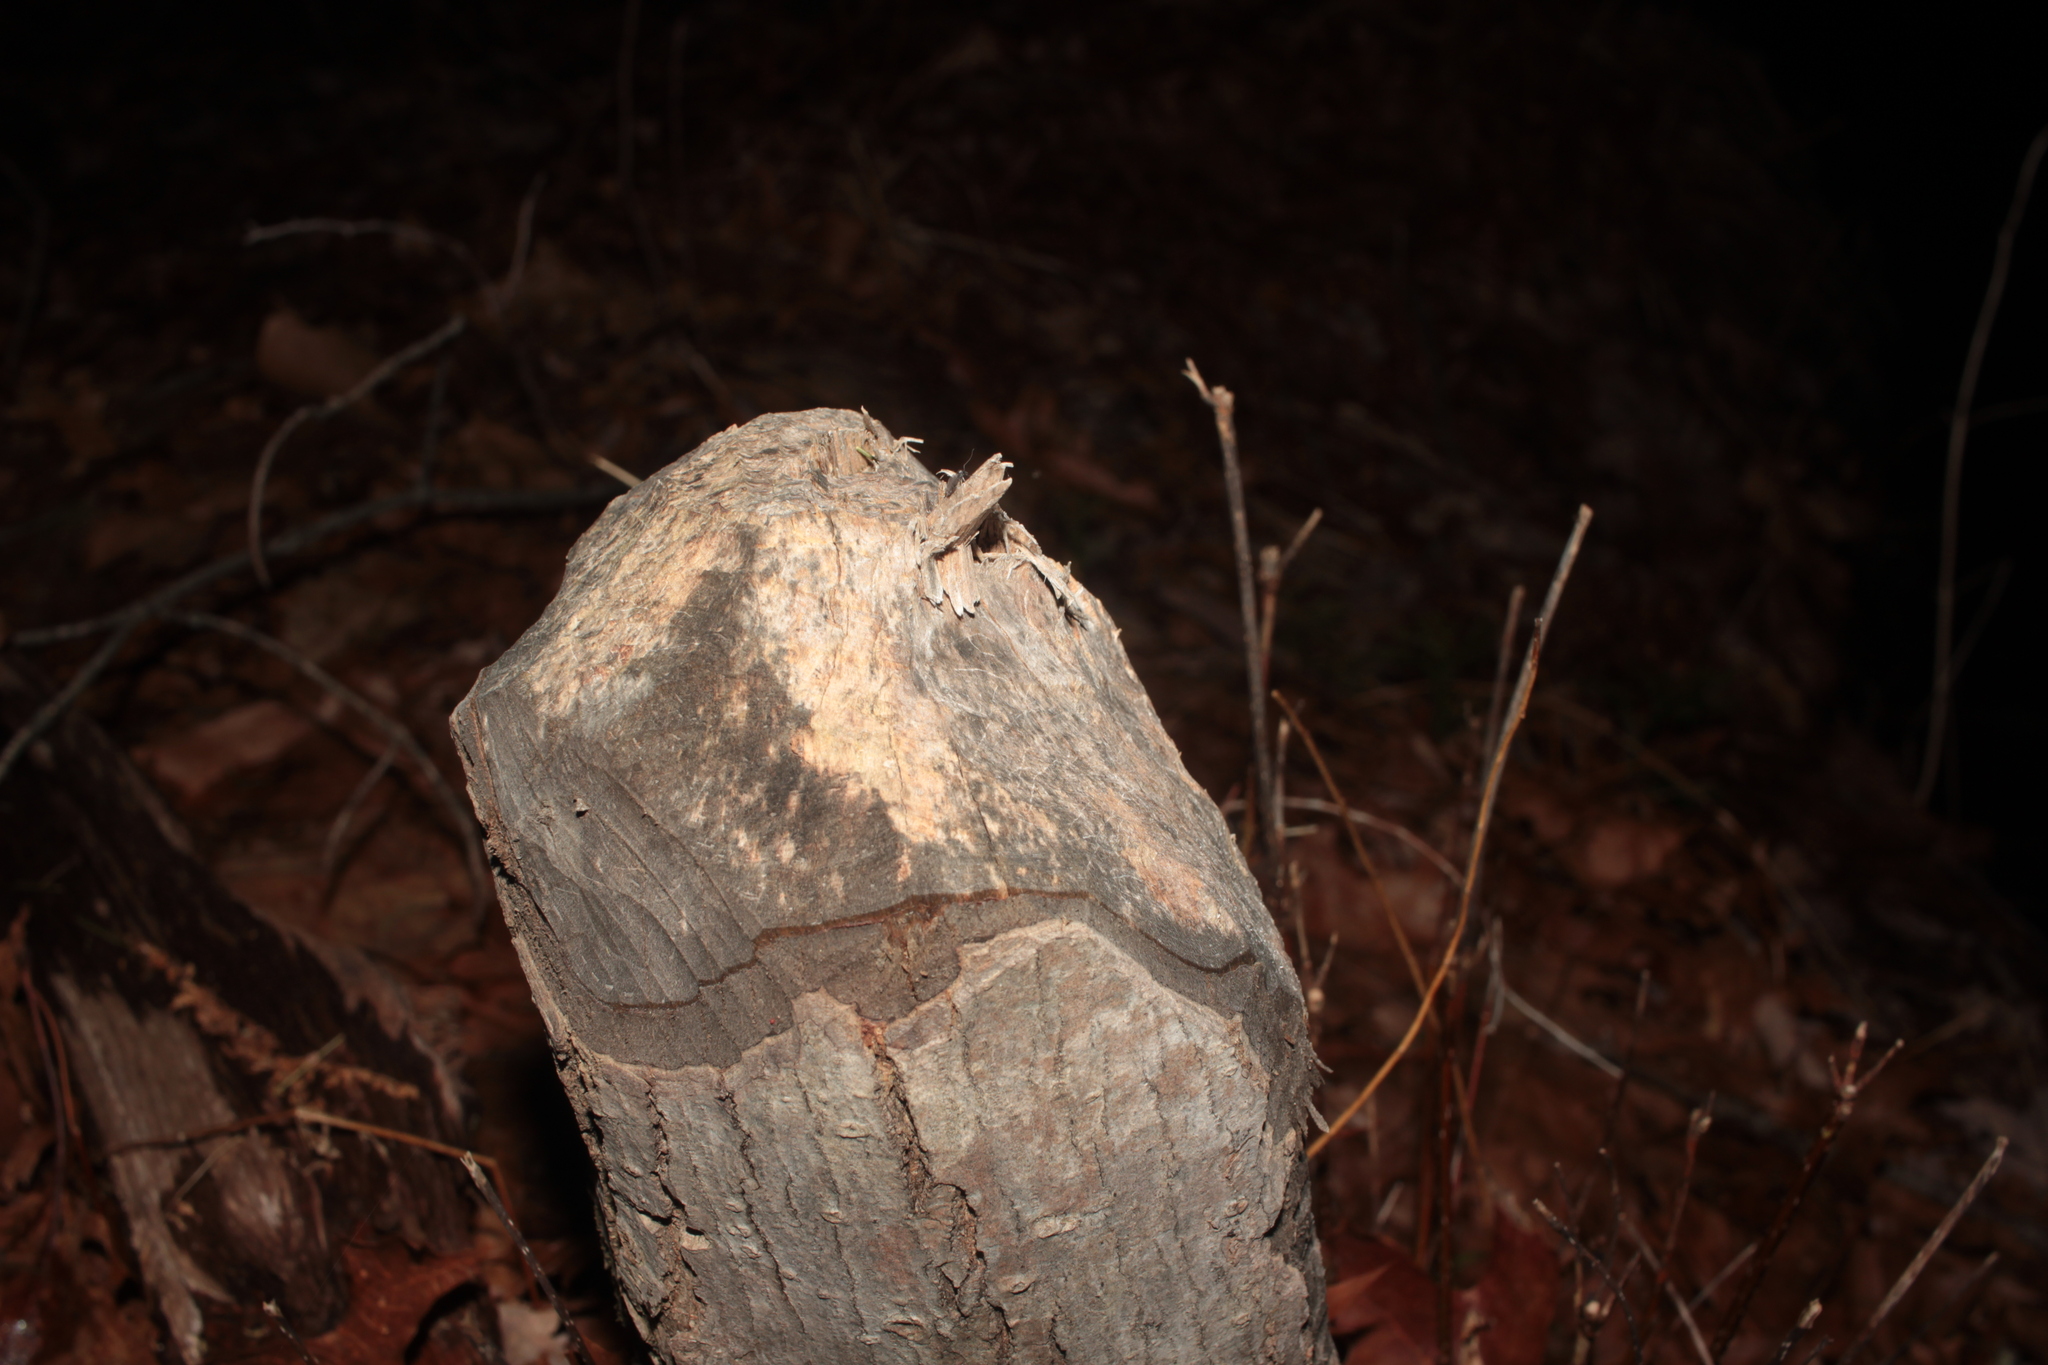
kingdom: Animalia
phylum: Chordata
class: Mammalia
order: Rodentia
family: Castoridae
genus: Castor
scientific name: Castor canadensis
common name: American beaver
